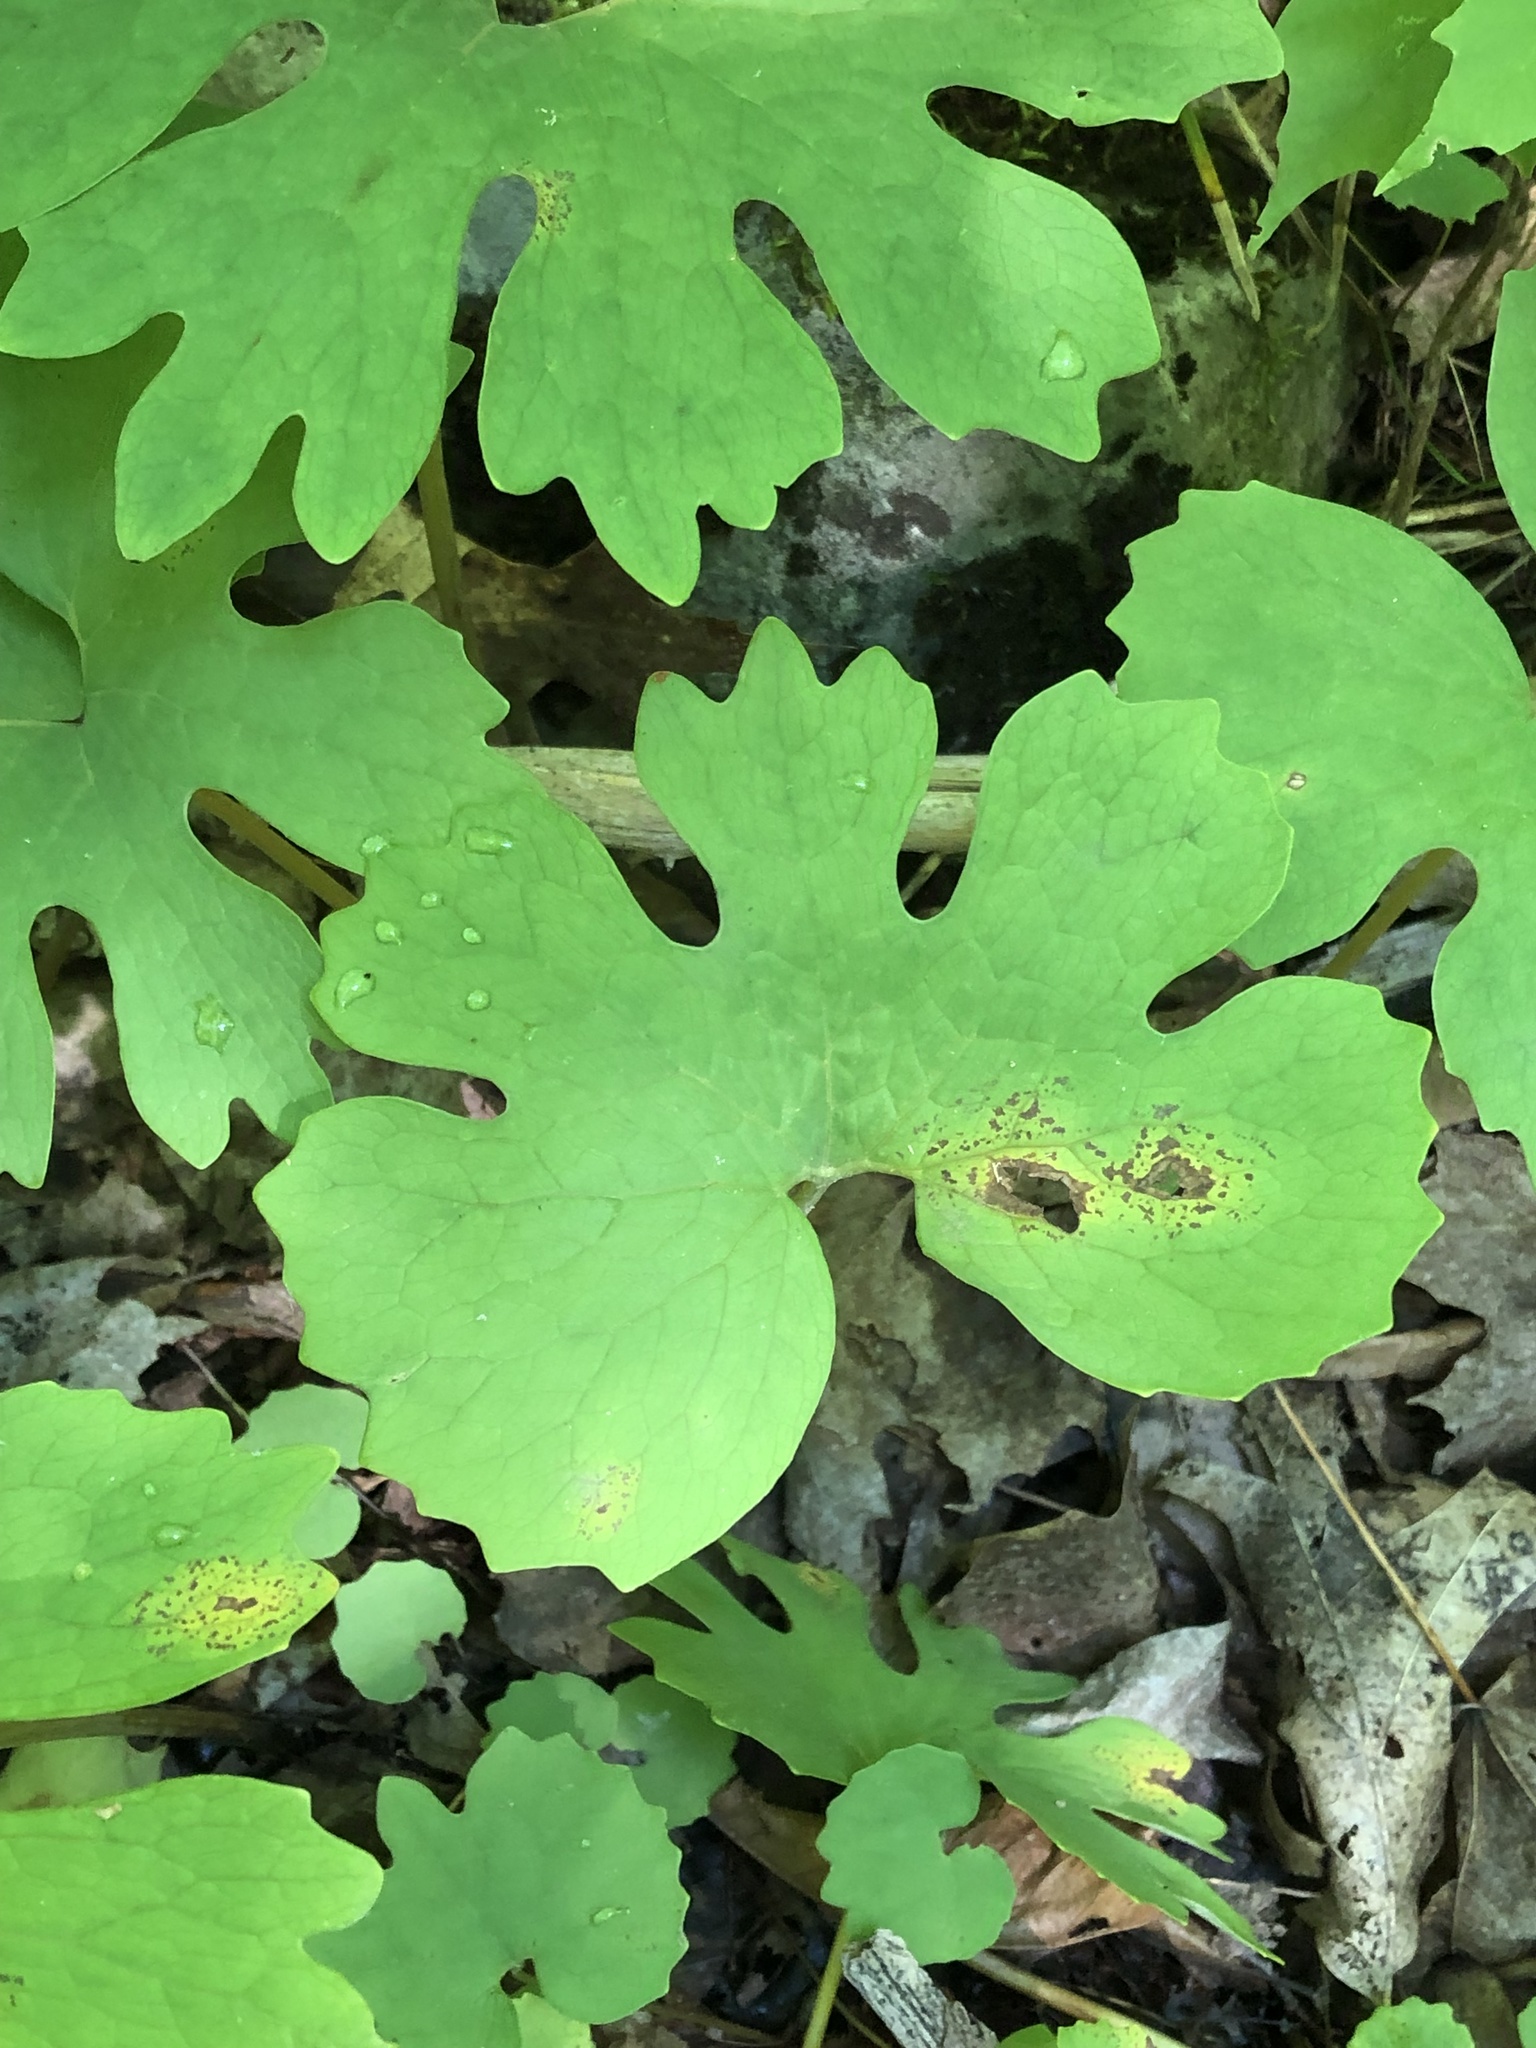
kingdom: Plantae
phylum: Tracheophyta
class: Magnoliopsida
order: Ranunculales
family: Papaveraceae
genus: Sanguinaria
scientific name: Sanguinaria canadensis
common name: Bloodroot
